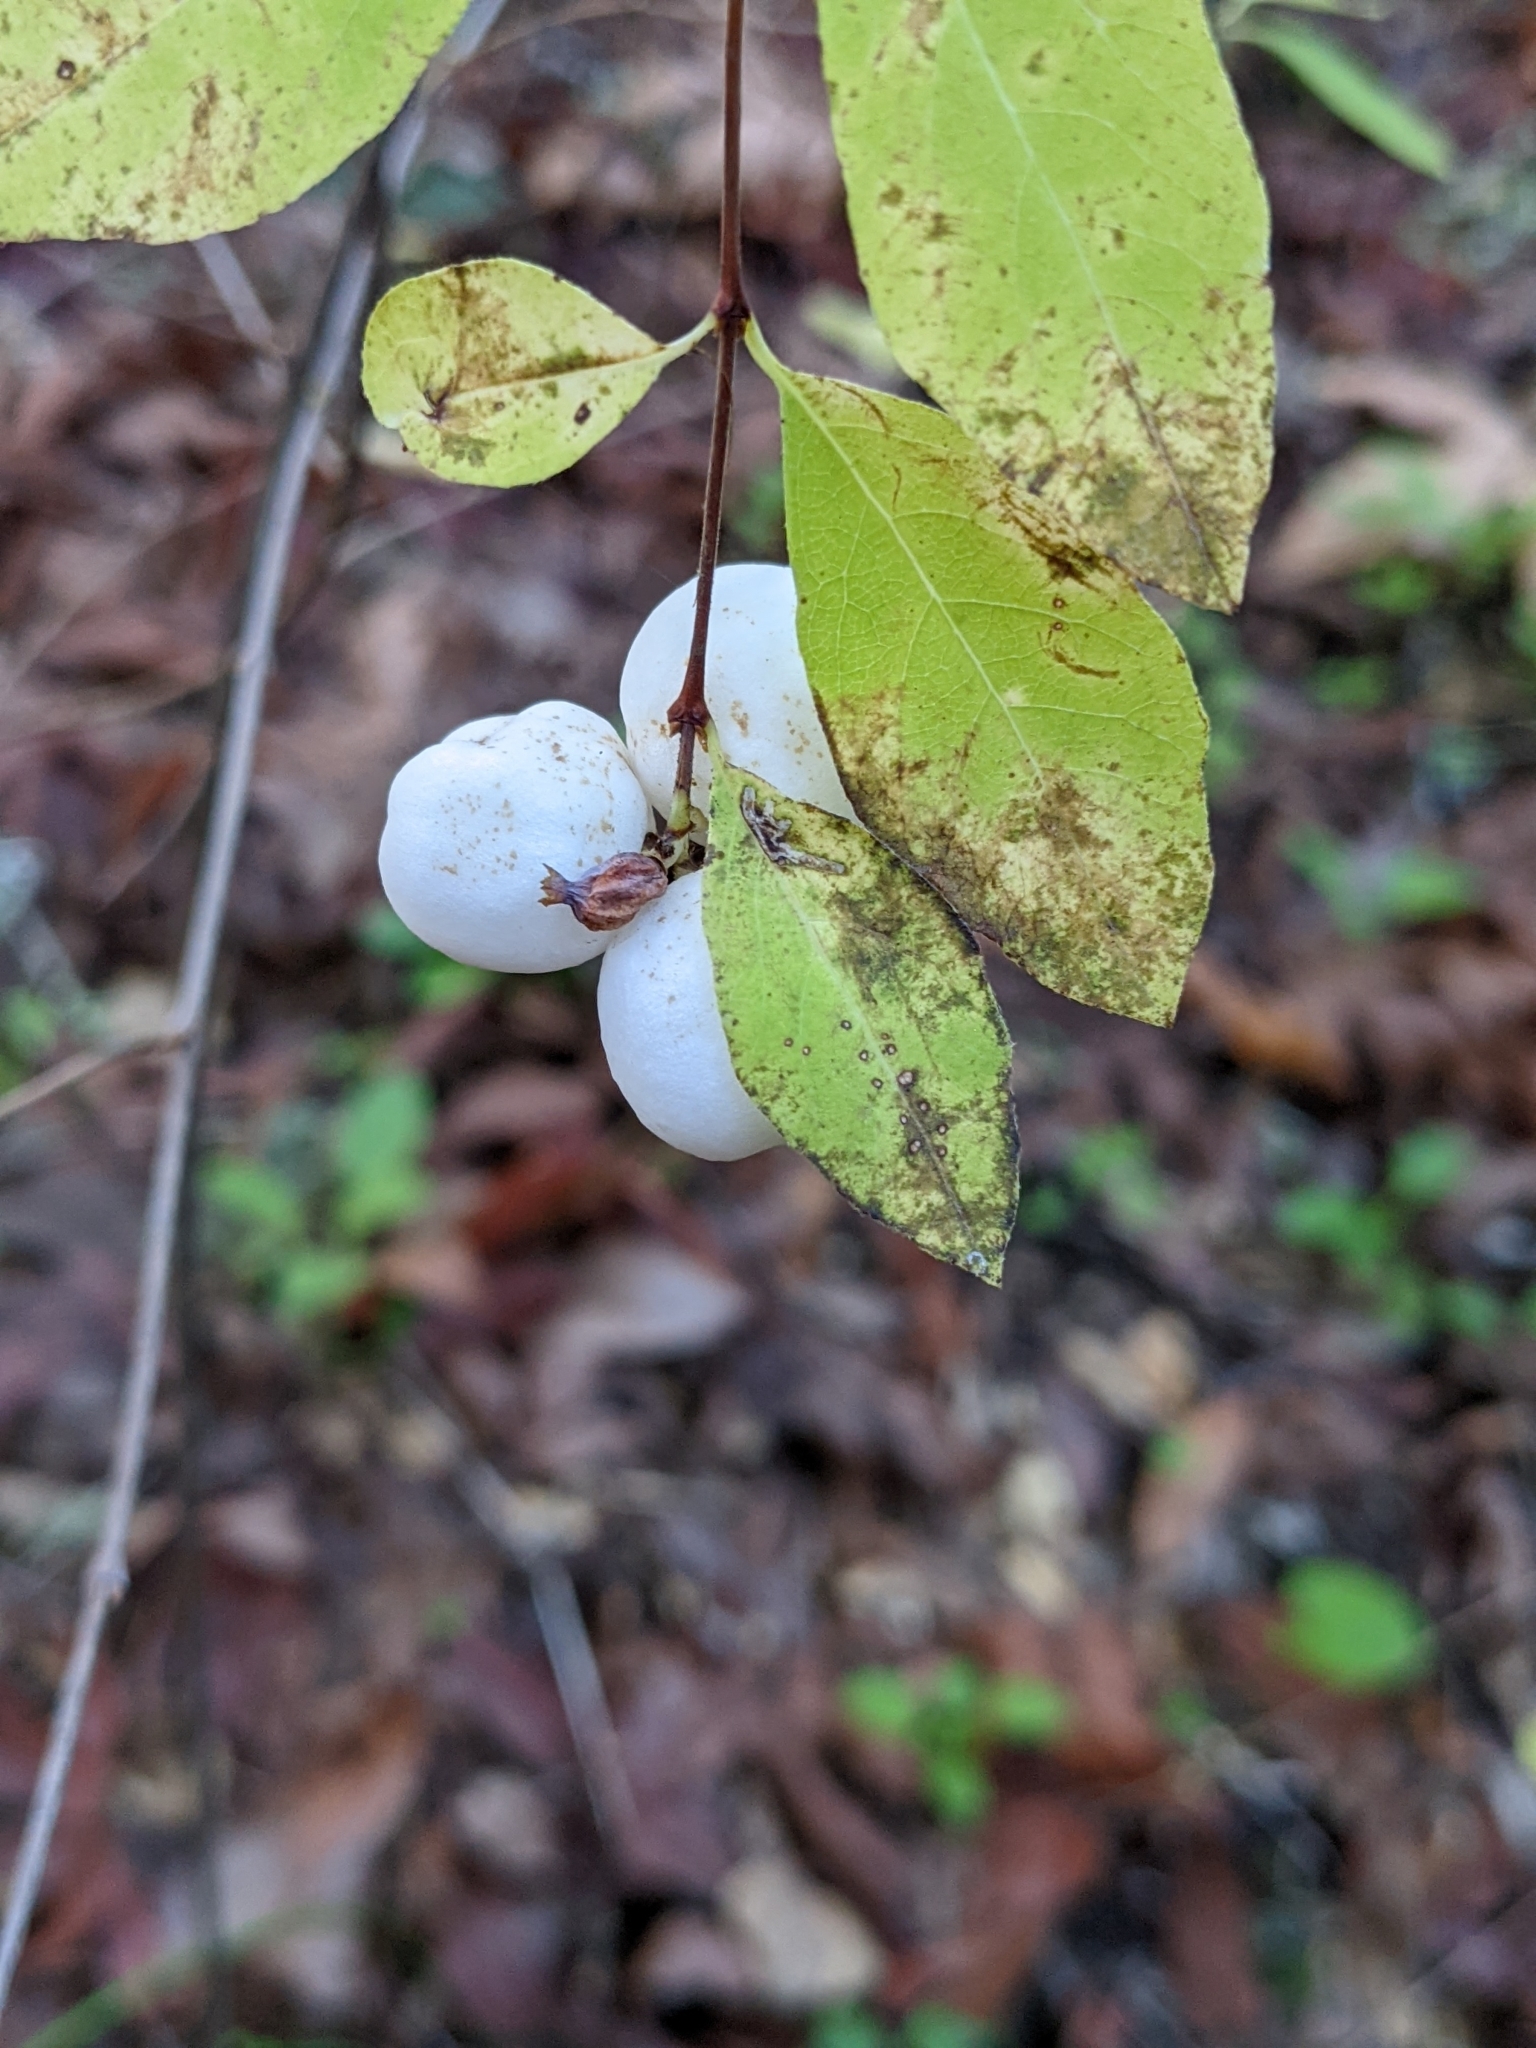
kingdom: Plantae
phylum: Tracheophyta
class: Magnoliopsida
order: Dipsacales
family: Caprifoliaceae
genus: Symphoricarpos
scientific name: Symphoricarpos albus
